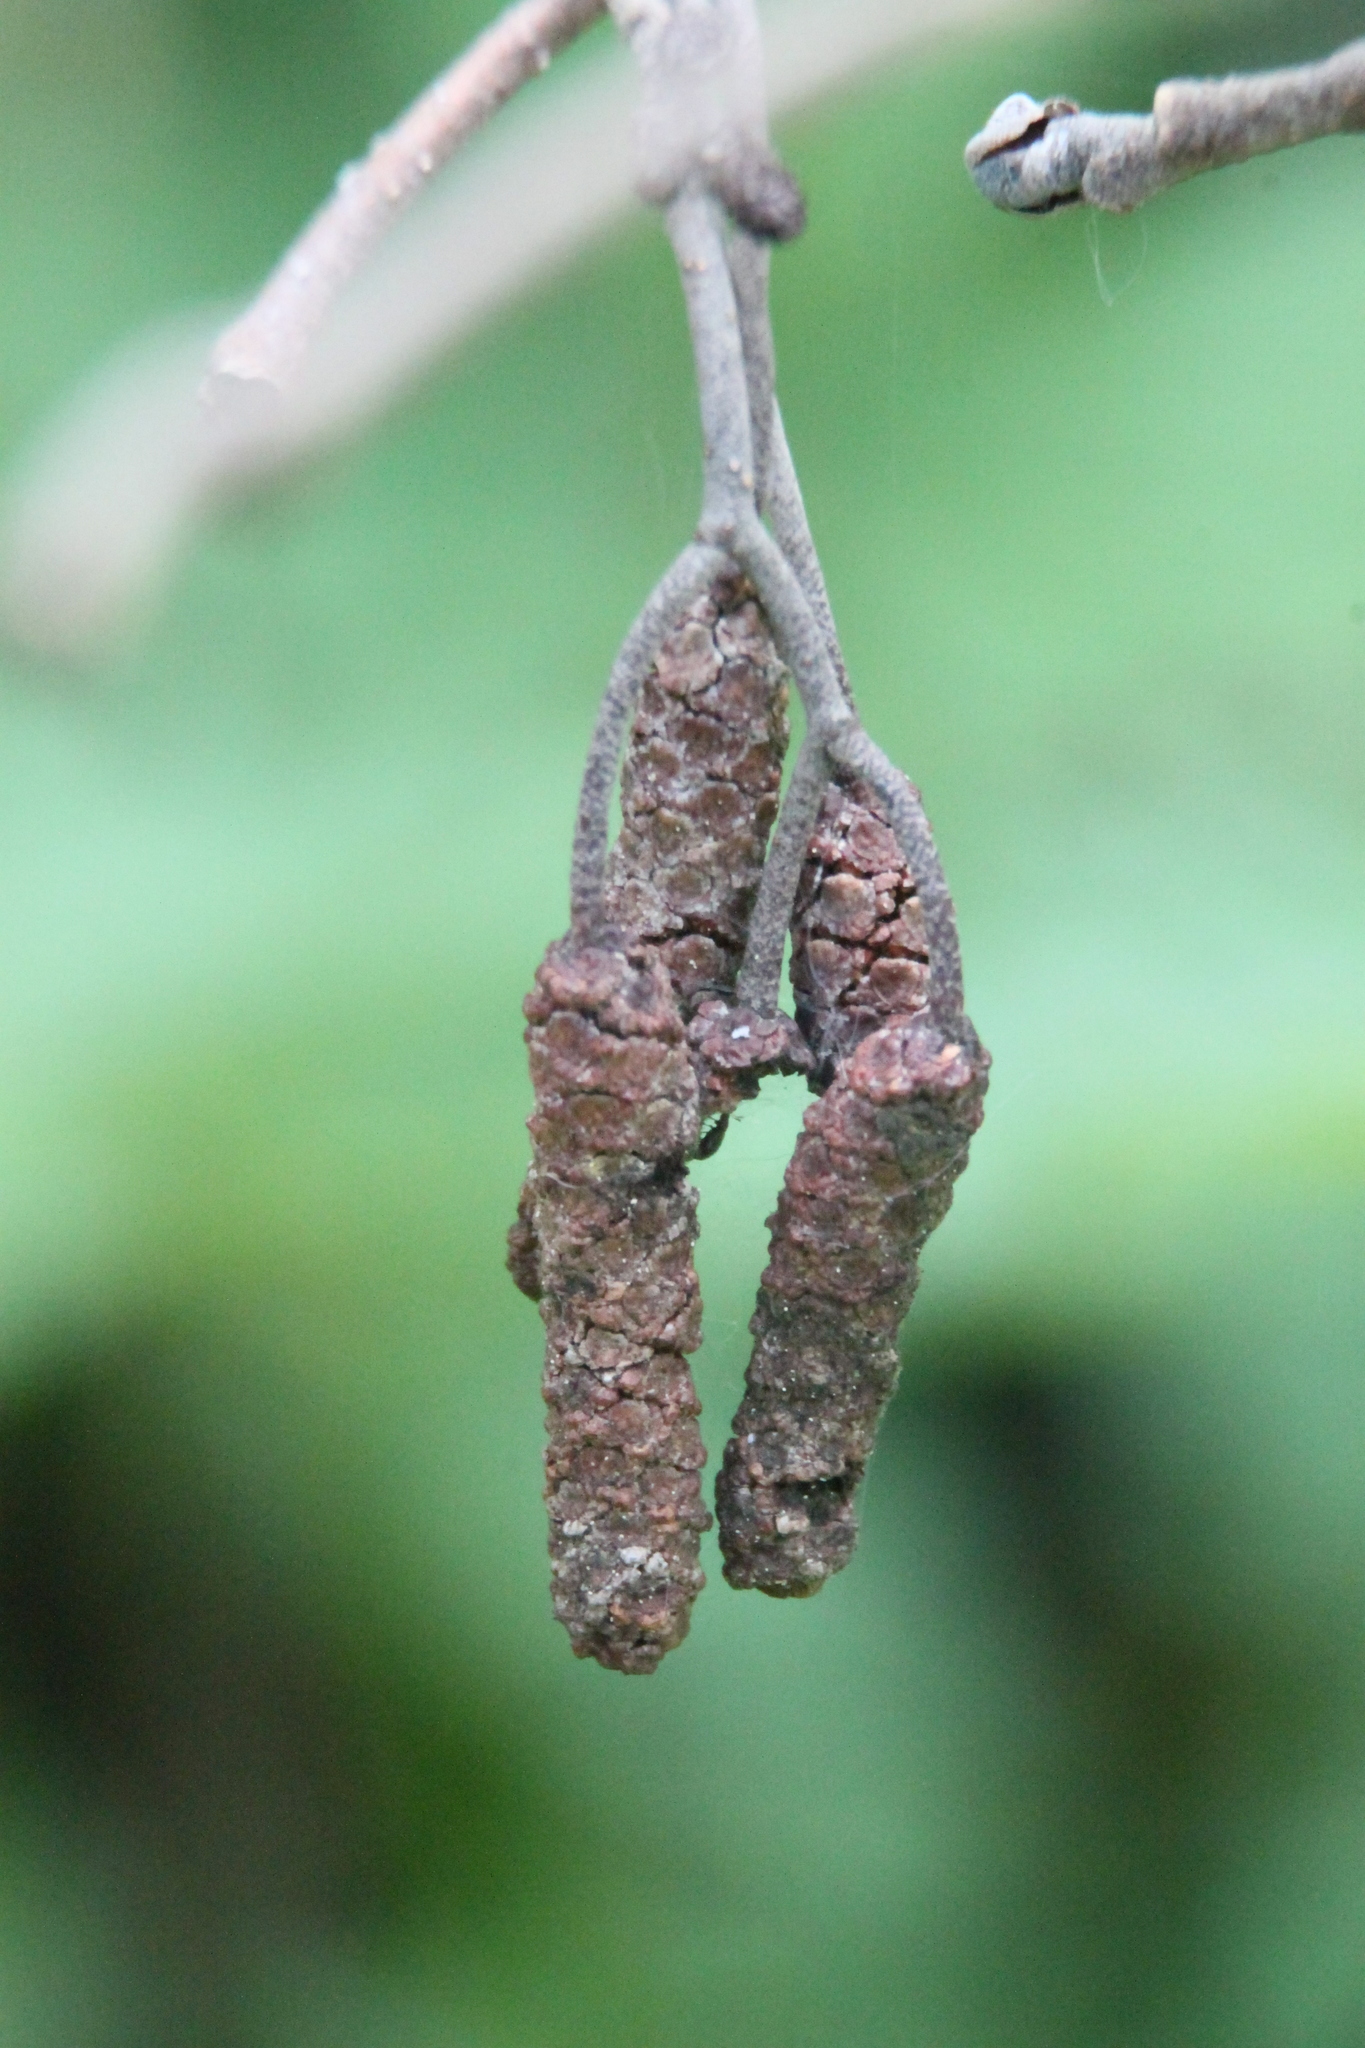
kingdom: Plantae
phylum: Tracheophyta
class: Magnoliopsida
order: Fagales
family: Betulaceae
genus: Alnus
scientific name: Alnus glutinosa
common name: Black alder
